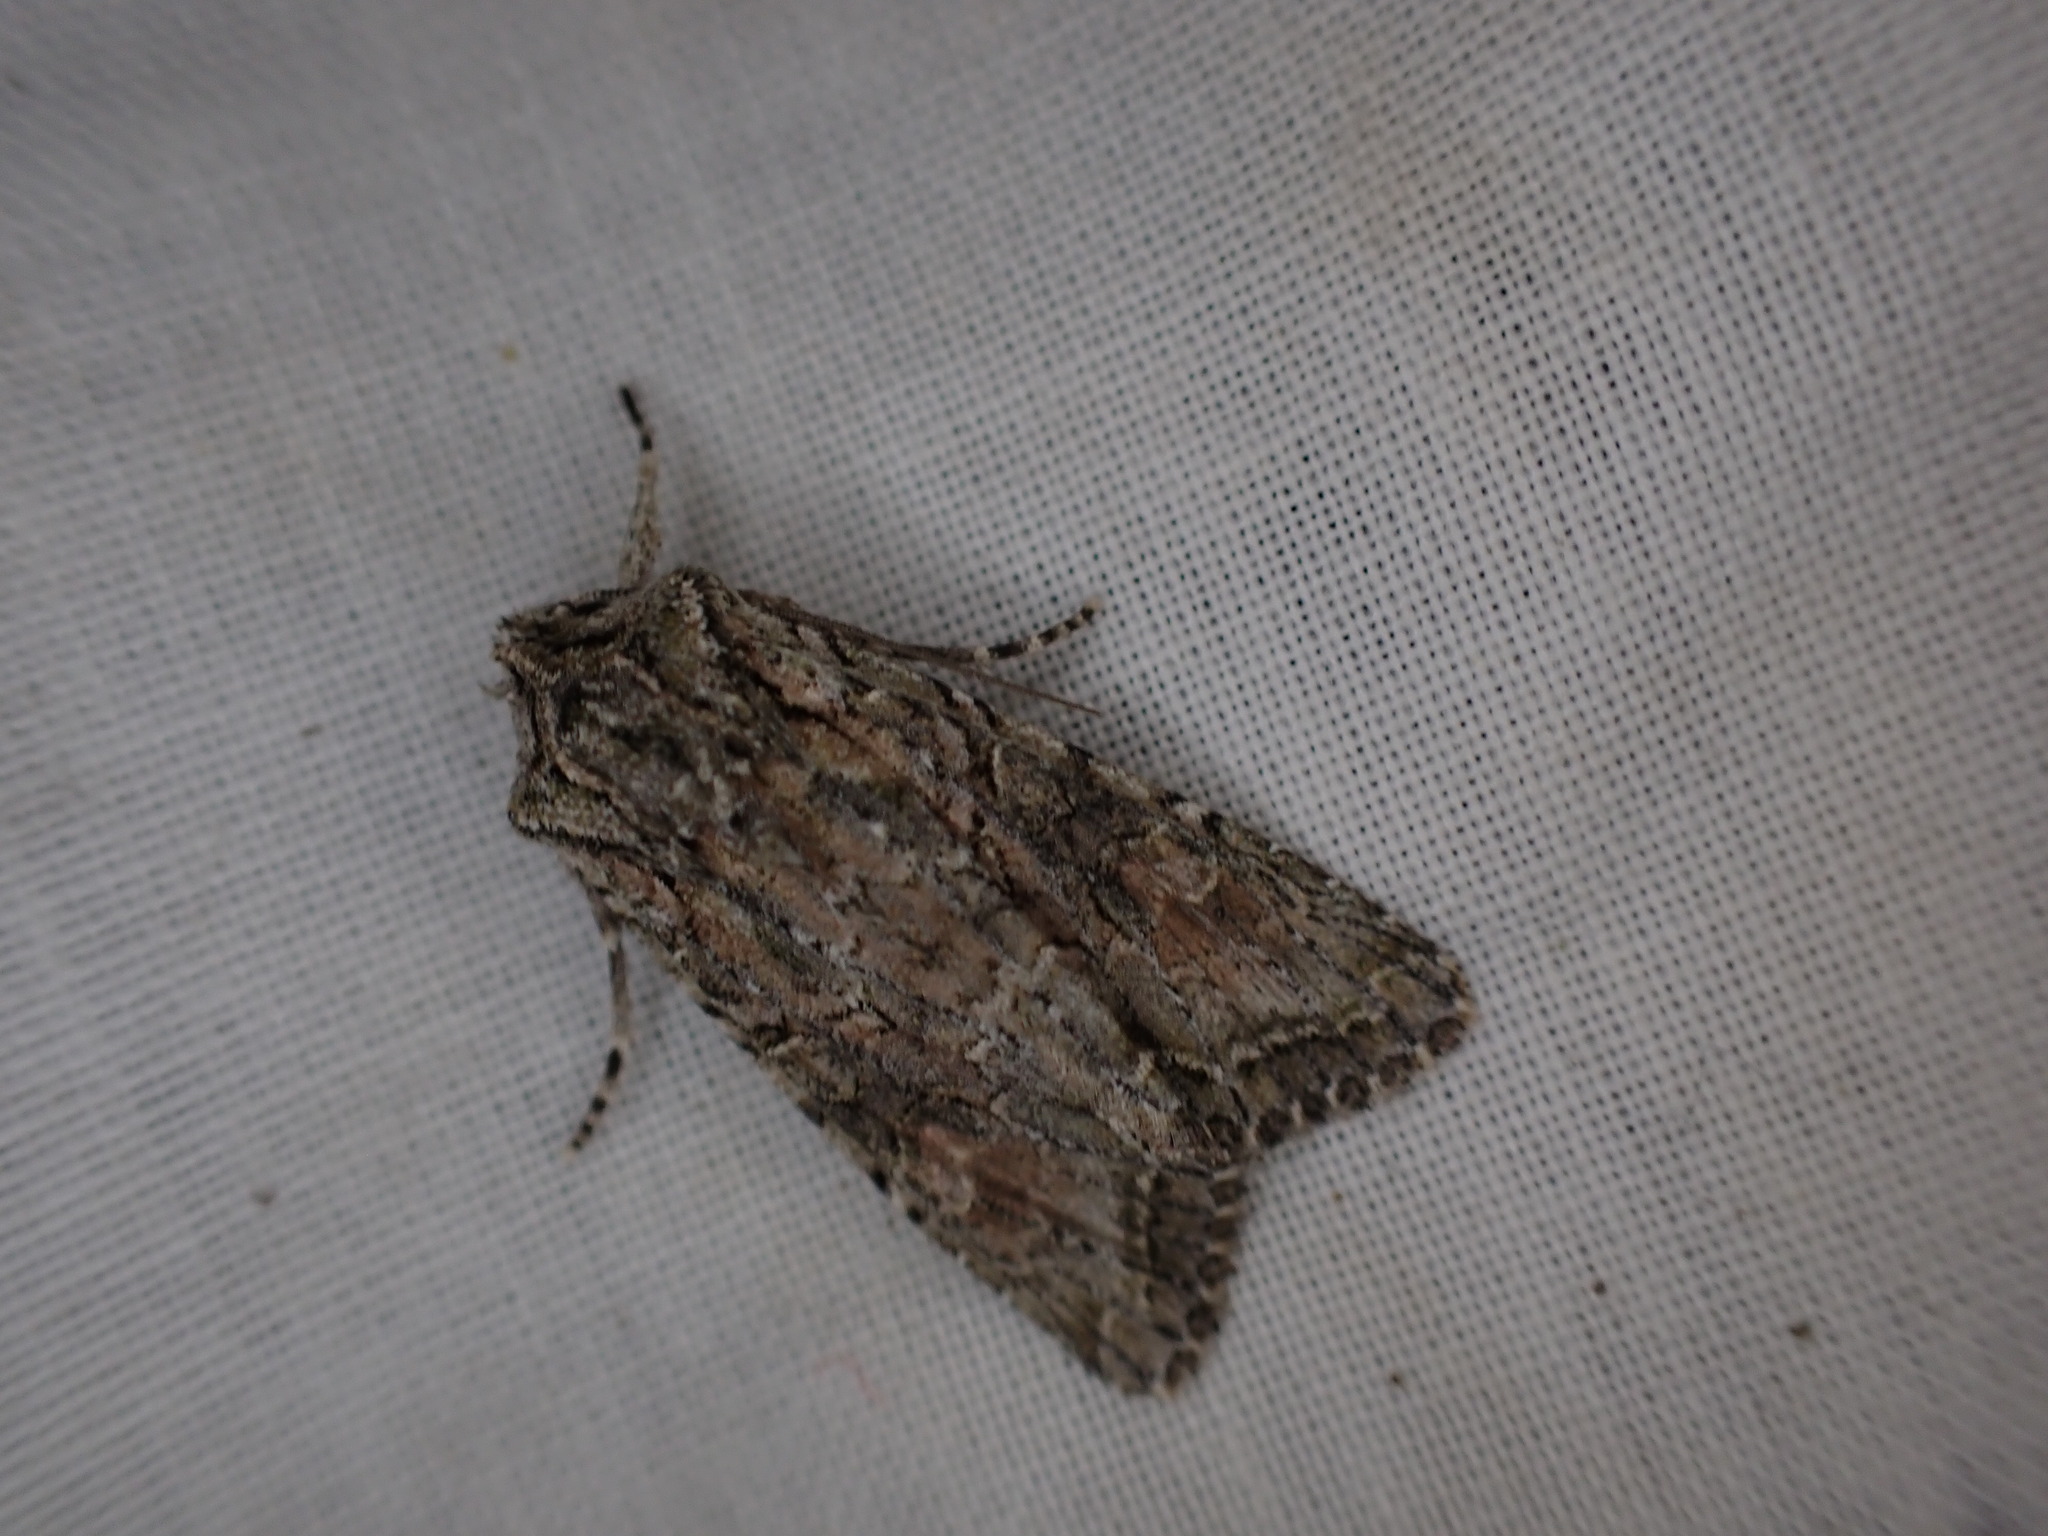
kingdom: Animalia
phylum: Arthropoda
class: Insecta
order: Lepidoptera
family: Noctuidae
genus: Ichneutica
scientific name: Ichneutica mutans
